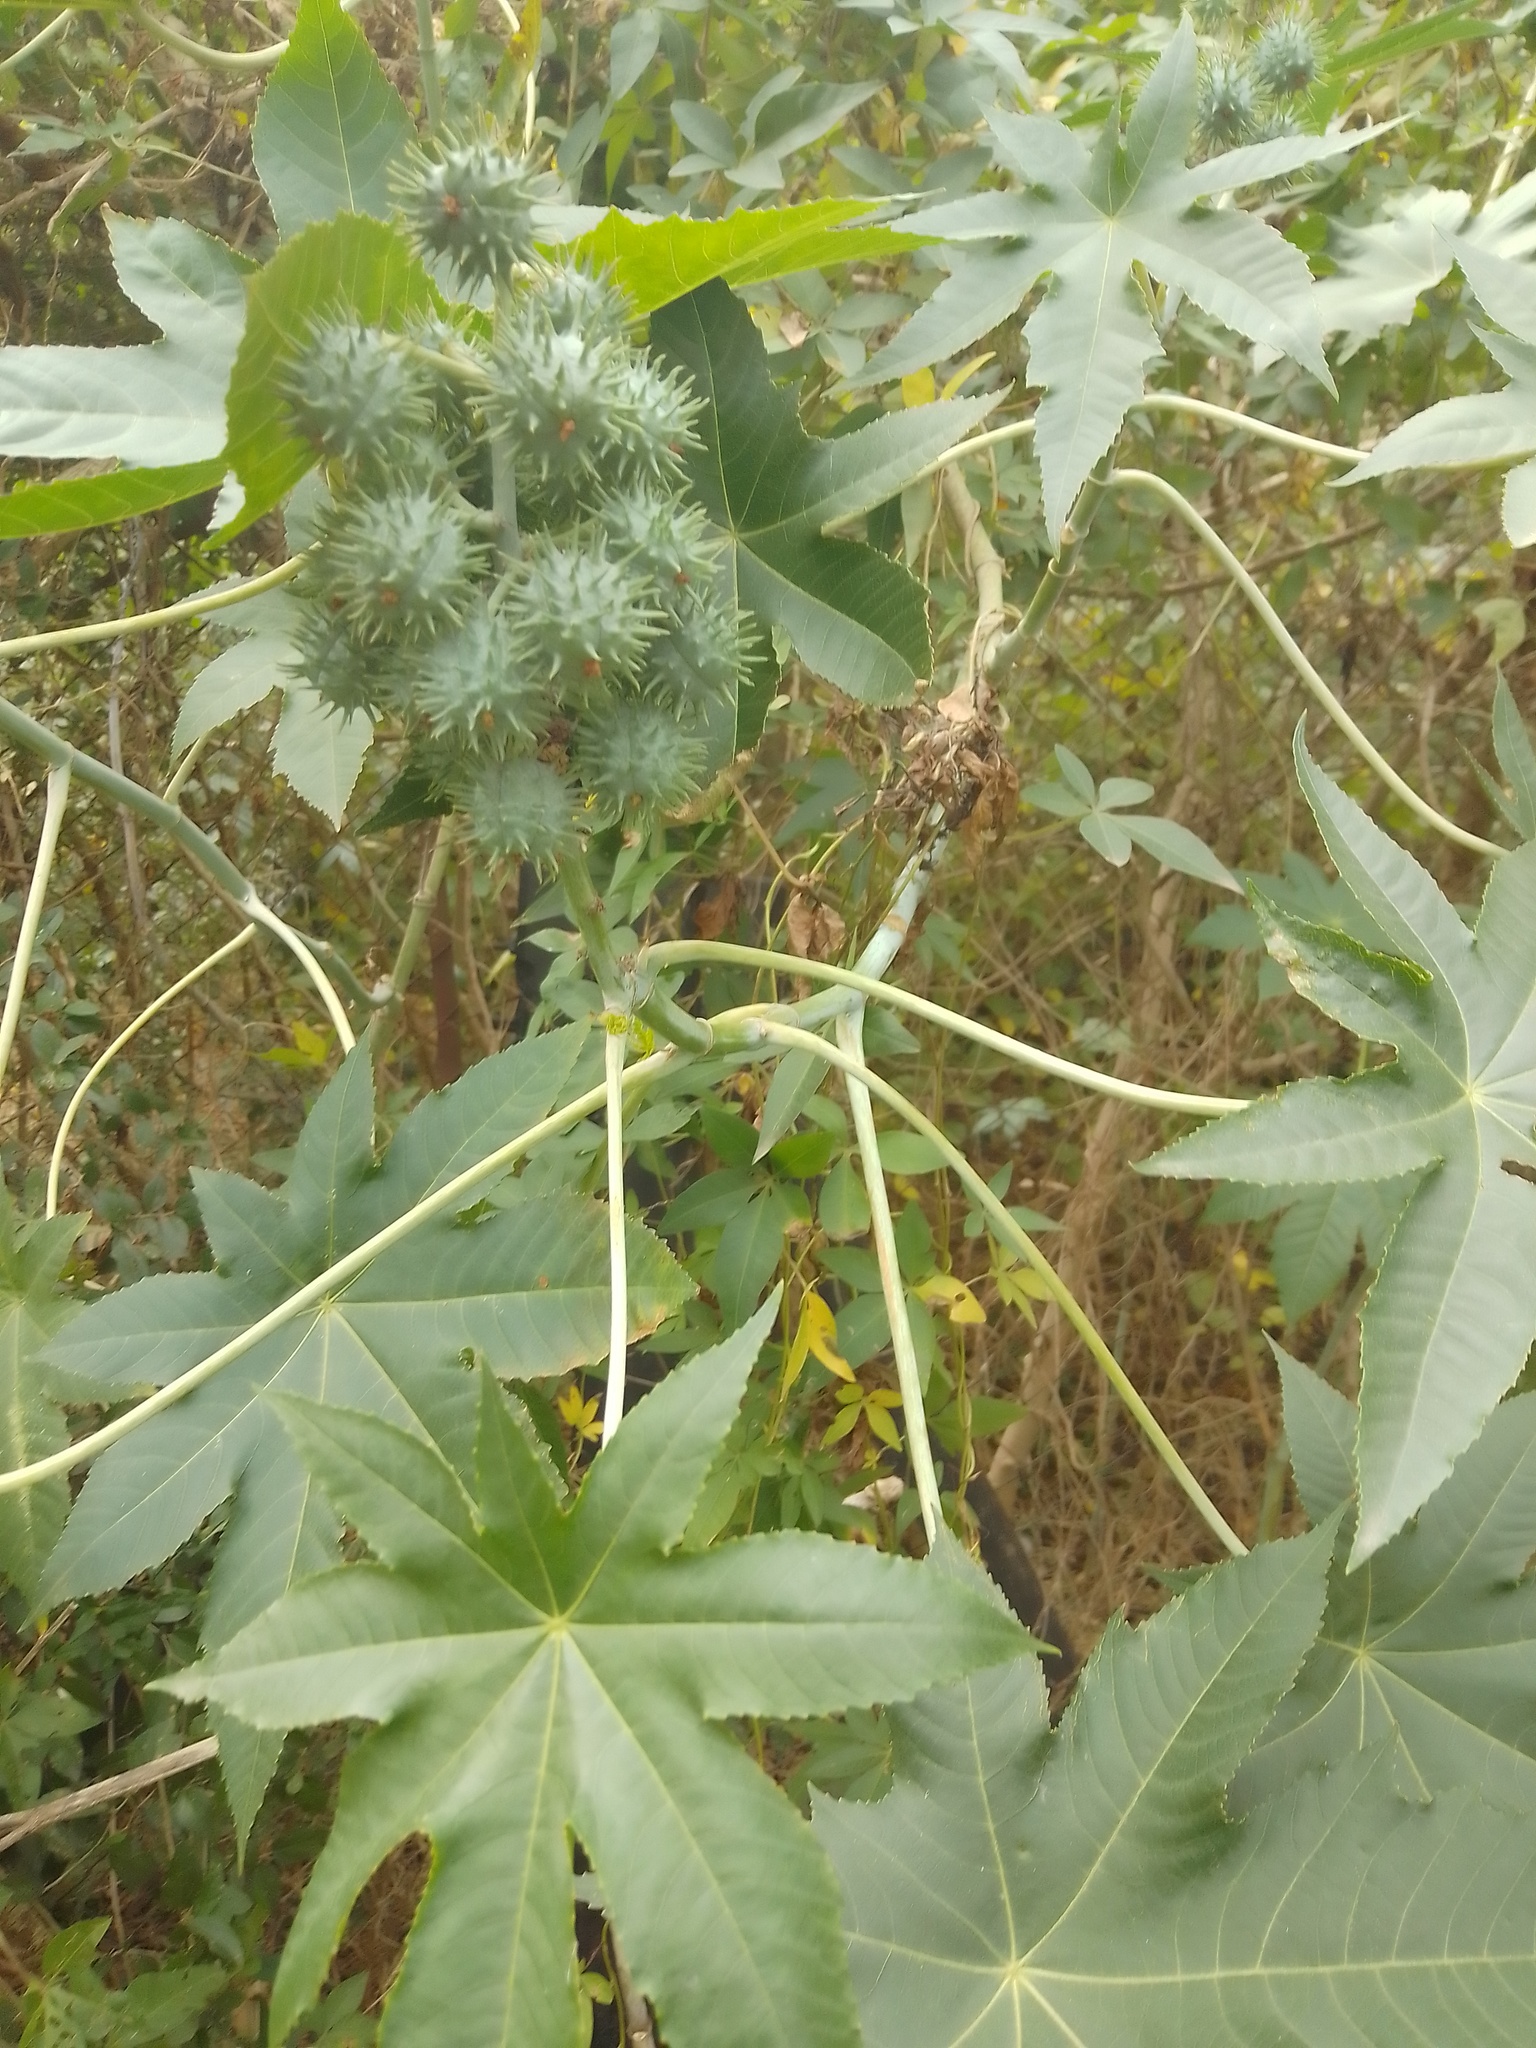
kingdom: Plantae
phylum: Tracheophyta
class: Magnoliopsida
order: Malpighiales
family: Euphorbiaceae
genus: Ricinus
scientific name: Ricinus communis
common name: Castor-oil-plant
